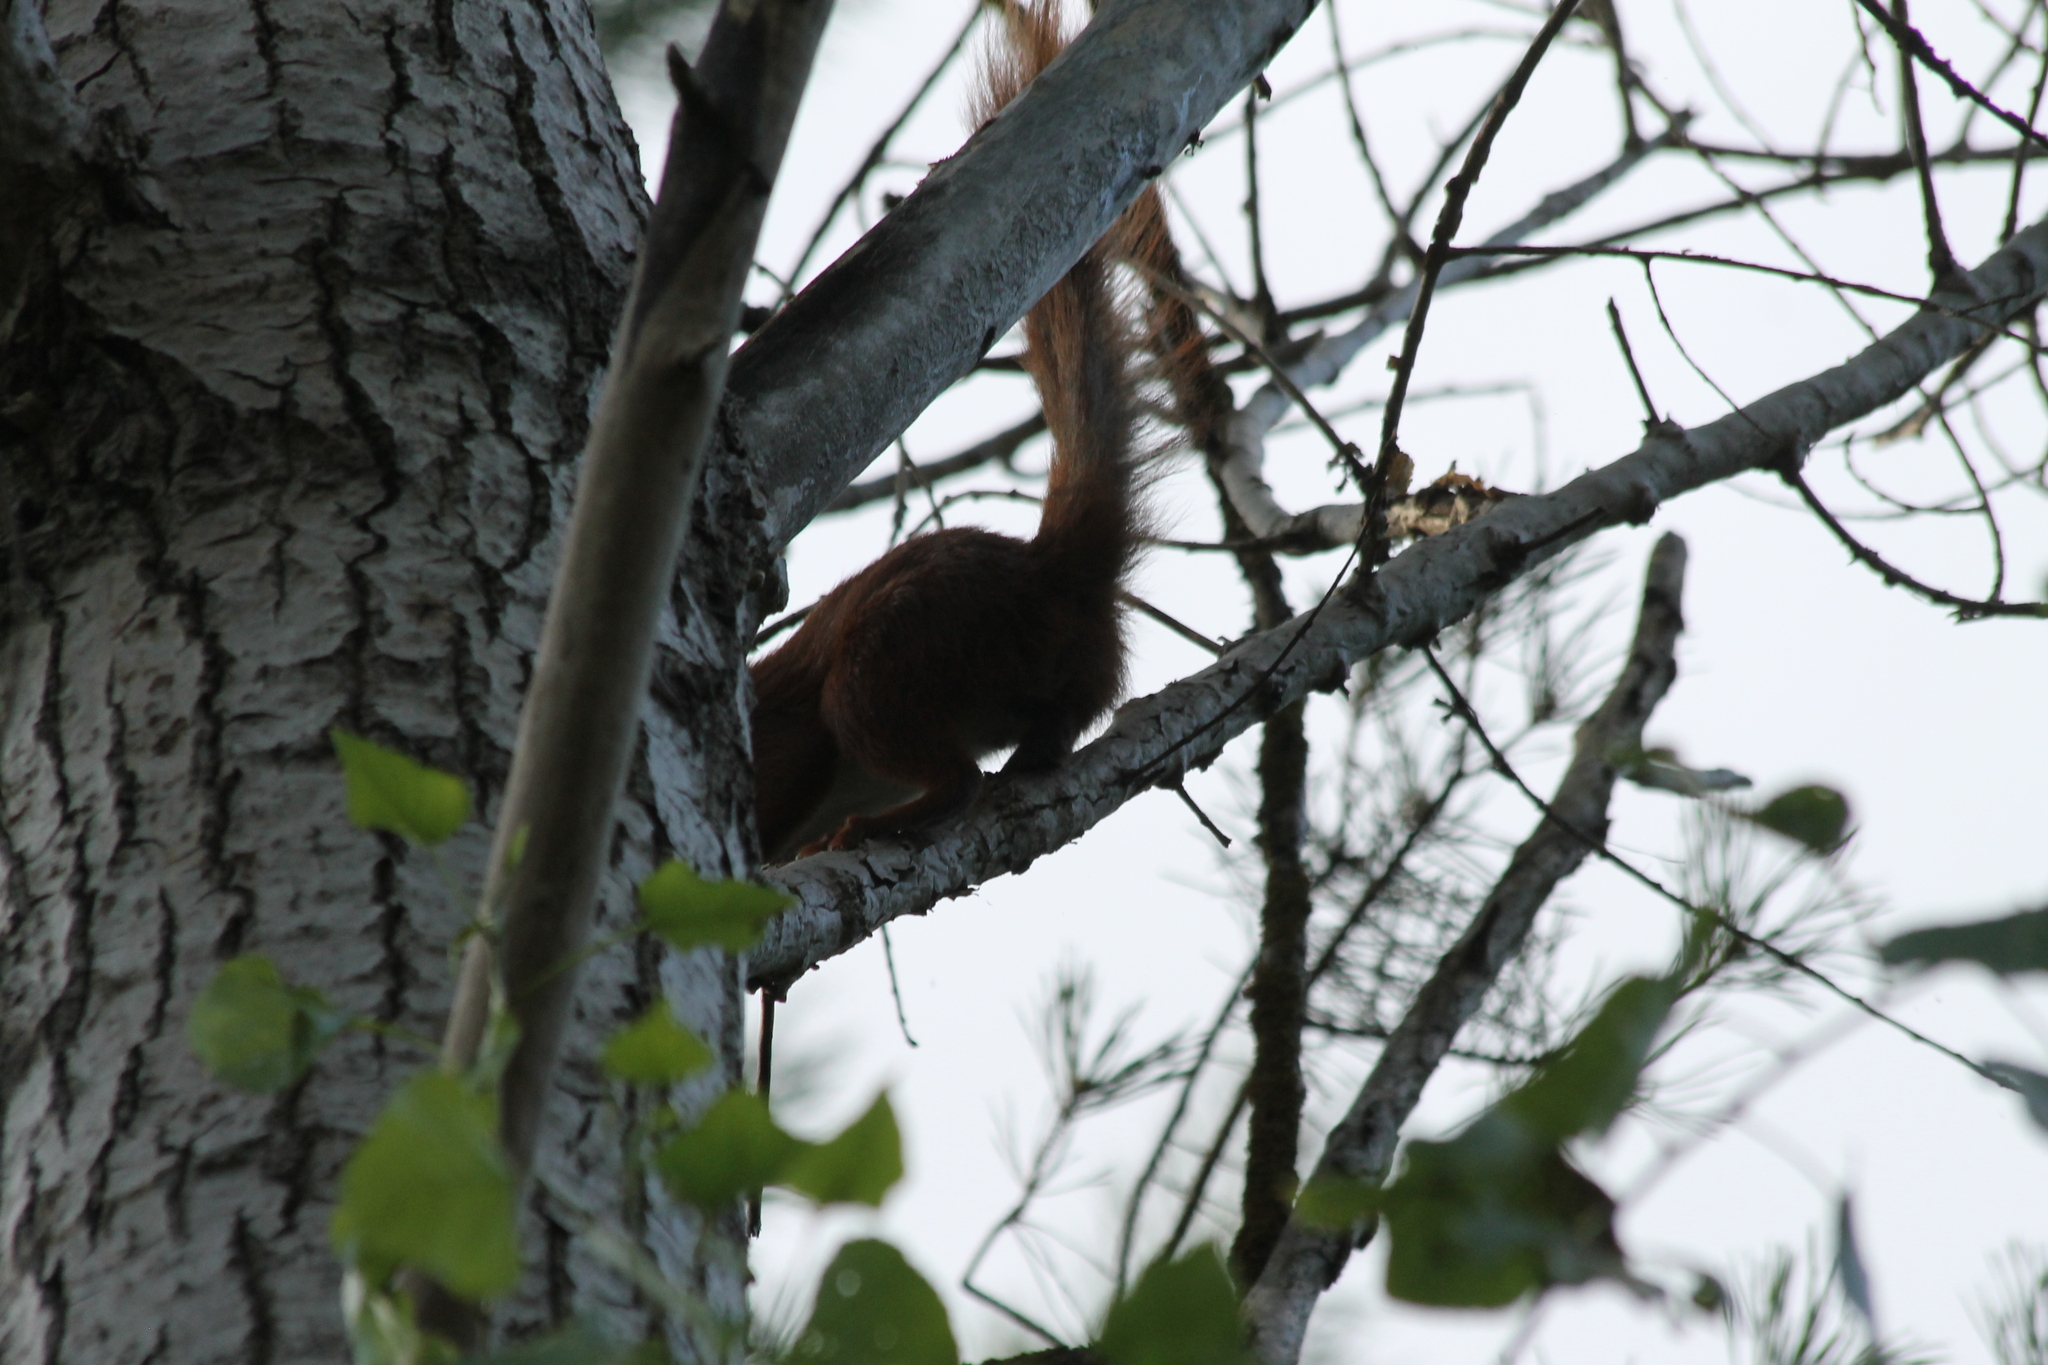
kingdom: Animalia
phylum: Chordata
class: Mammalia
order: Rodentia
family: Sciuridae
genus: Sciurus
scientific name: Sciurus vulgaris
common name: Eurasian red squirrel
